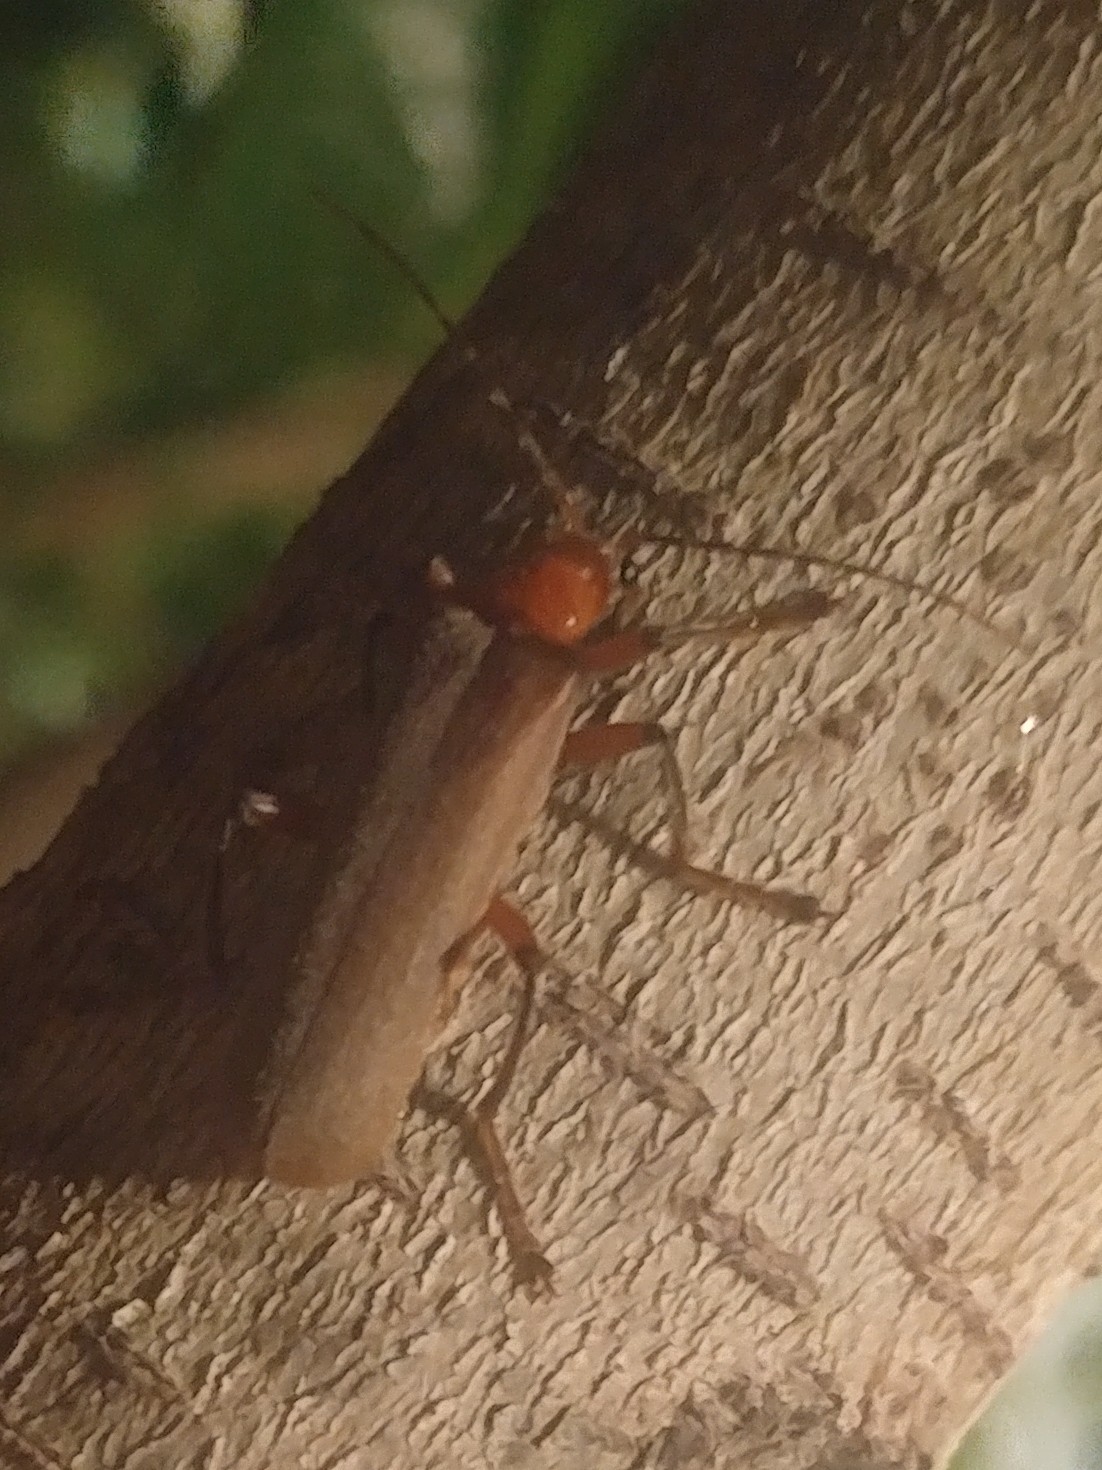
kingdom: Animalia
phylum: Arthropoda
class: Insecta
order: Coleoptera
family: Cantharidae
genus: Pacificanthia
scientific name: Pacificanthia consors
